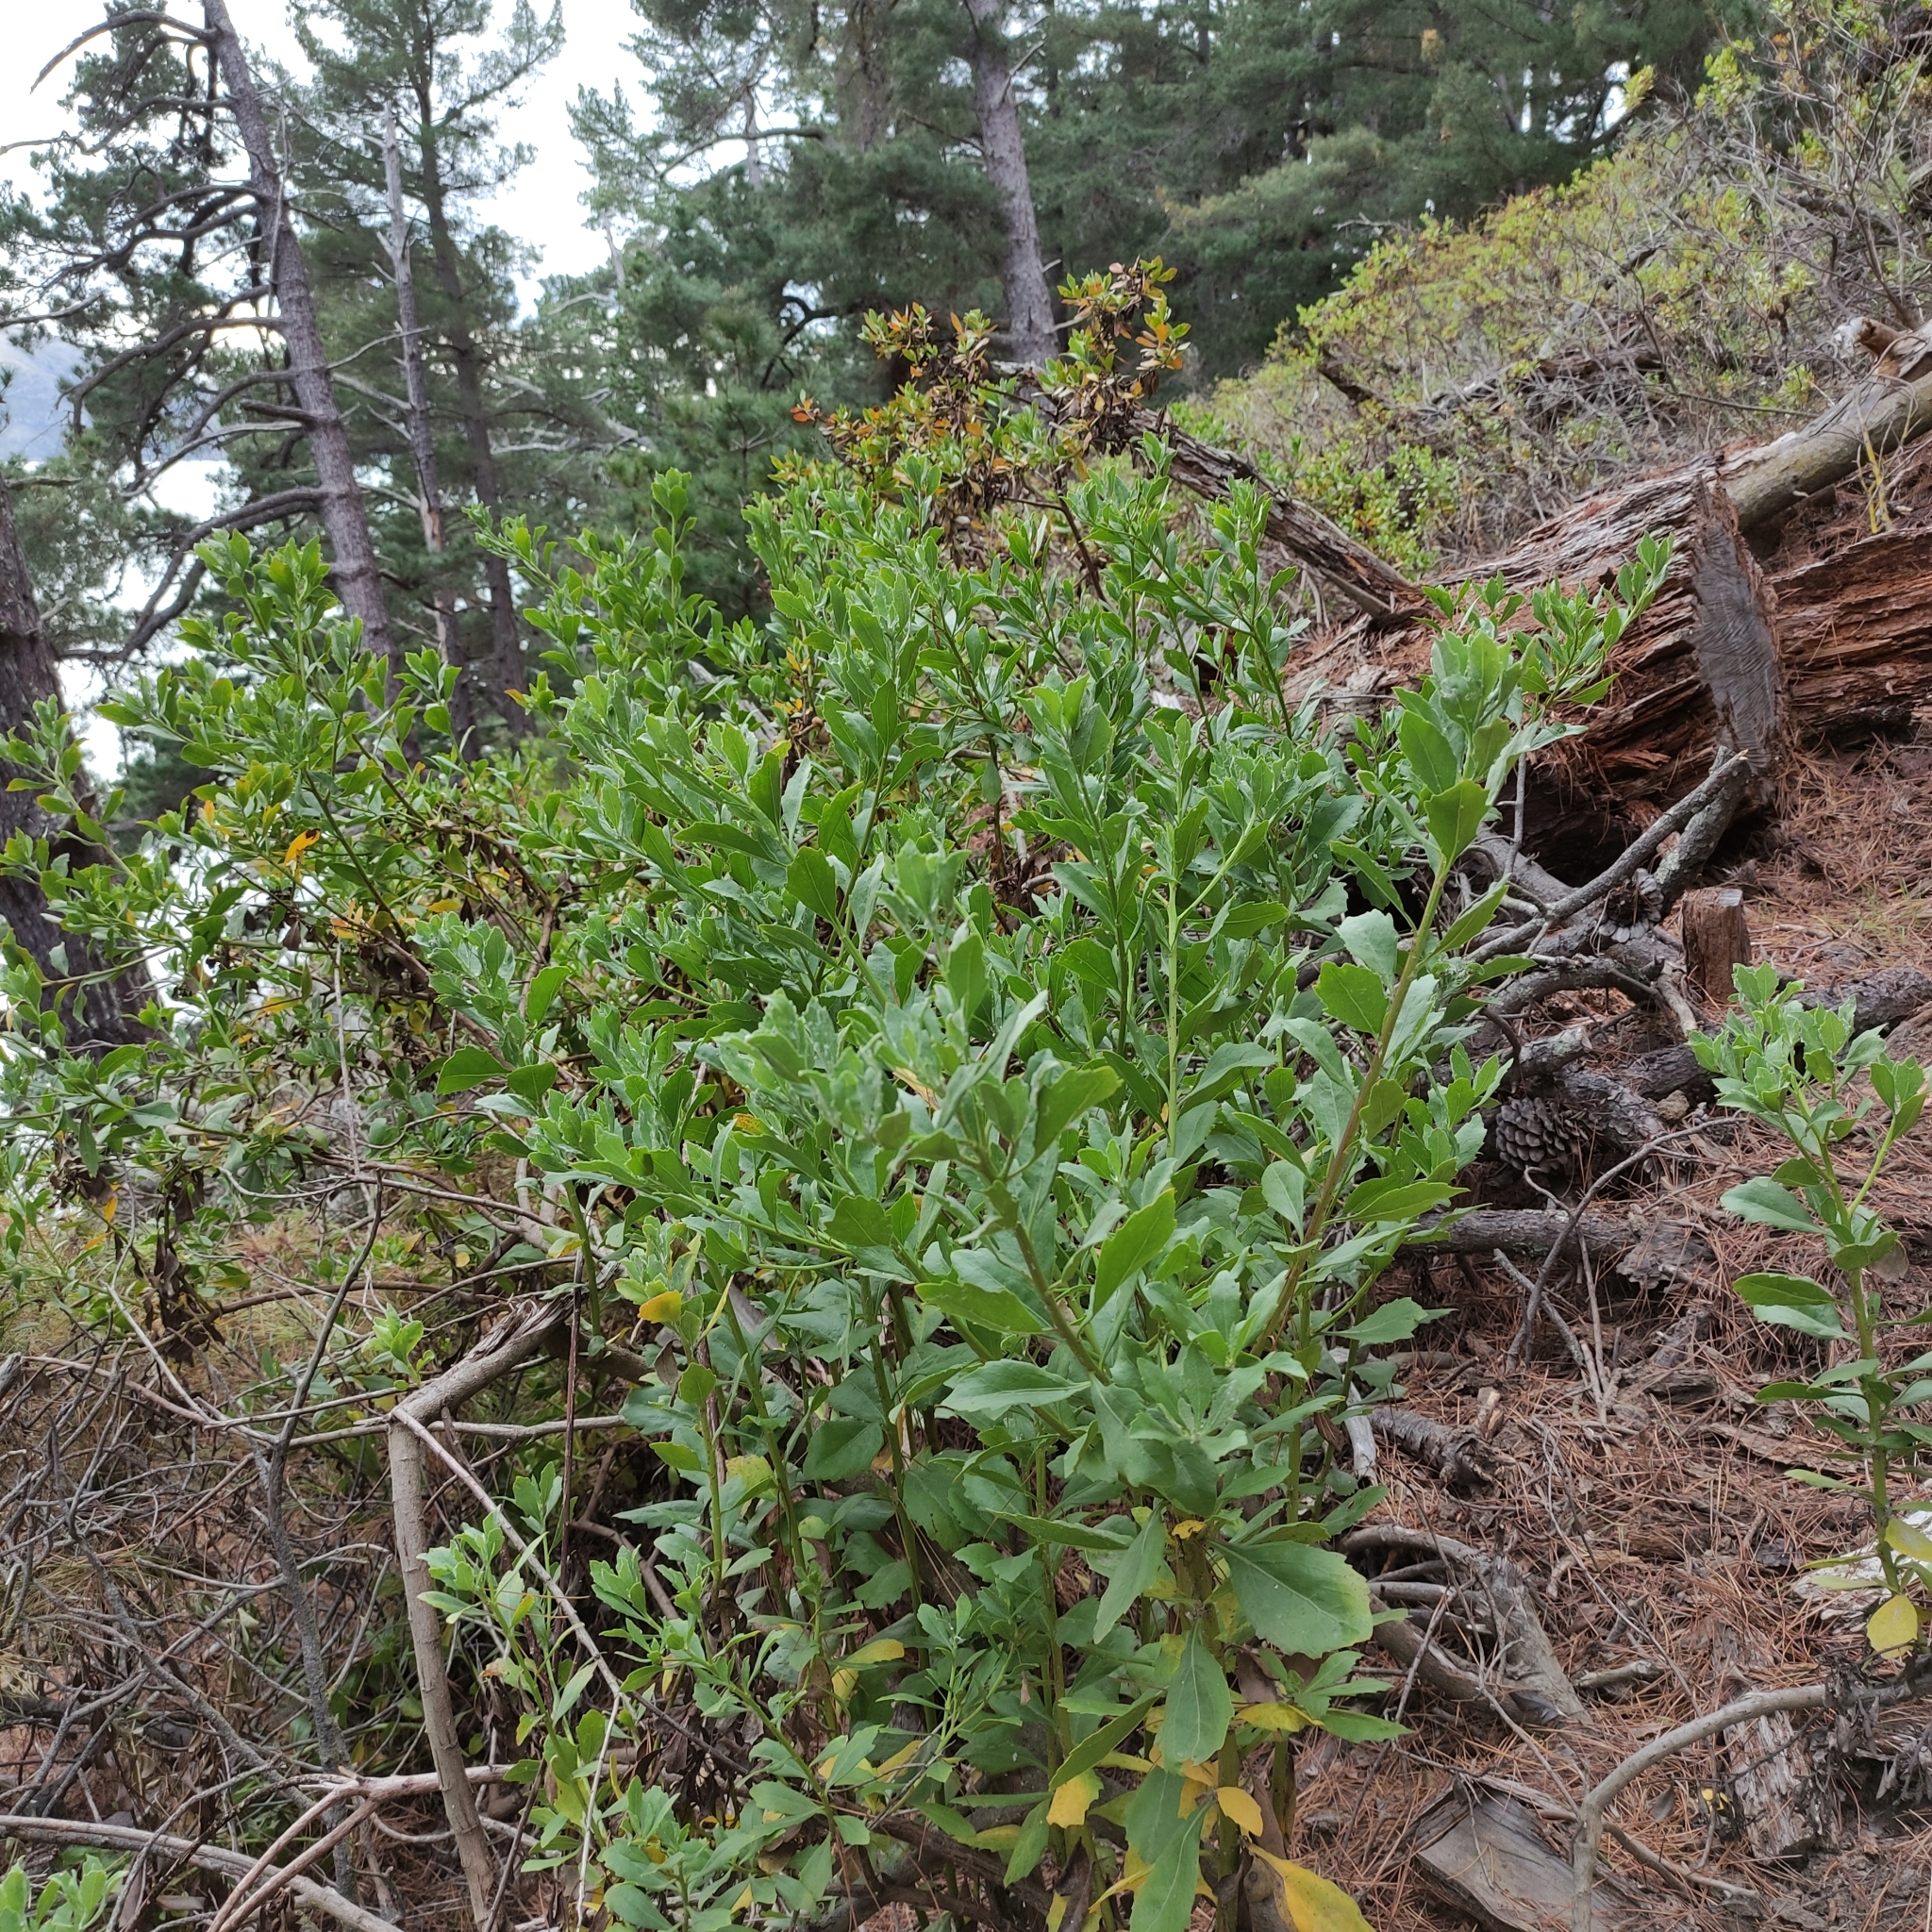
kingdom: Plantae
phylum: Tracheophyta
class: Magnoliopsida
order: Asterales
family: Asteraceae
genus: Osteospermum
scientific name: Osteospermum moniliferum
